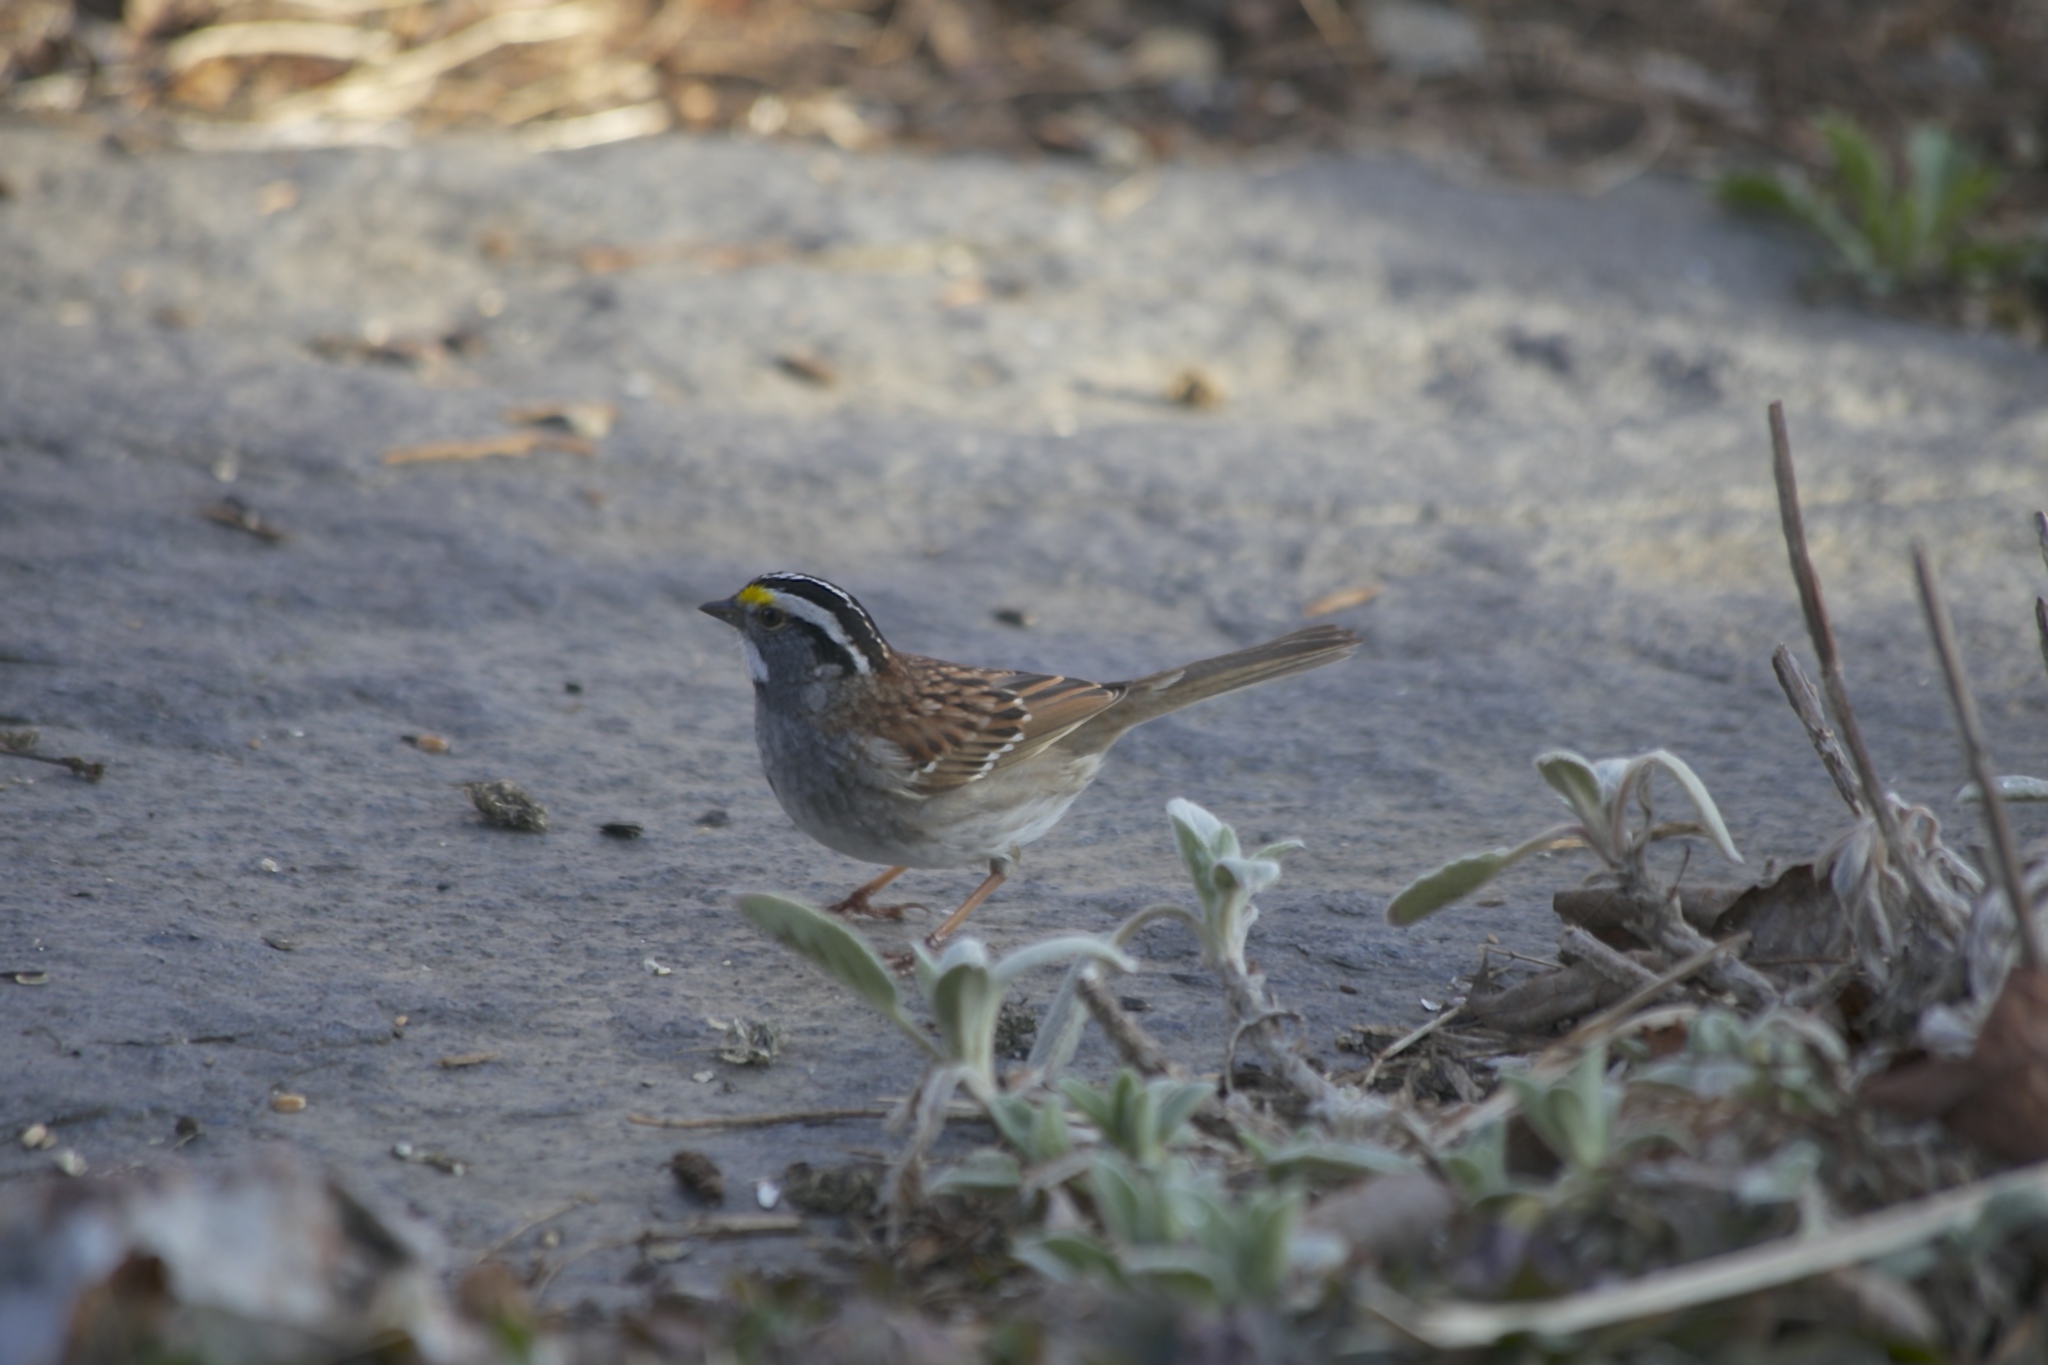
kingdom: Animalia
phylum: Chordata
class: Aves
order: Passeriformes
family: Passerellidae
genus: Zonotrichia
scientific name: Zonotrichia albicollis
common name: White-throated sparrow
